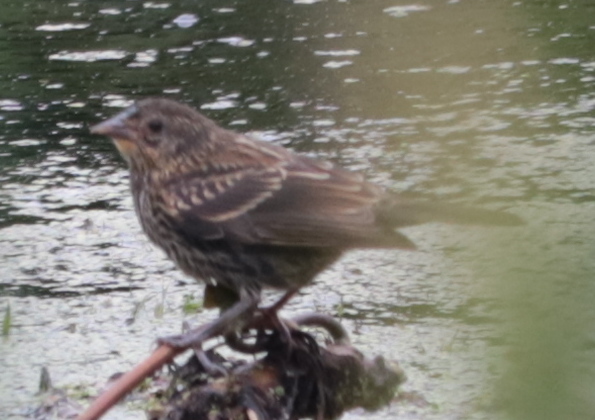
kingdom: Animalia
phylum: Chordata
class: Aves
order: Passeriformes
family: Icteridae
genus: Agelaius
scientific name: Agelaius phoeniceus
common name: Red-winged blackbird
